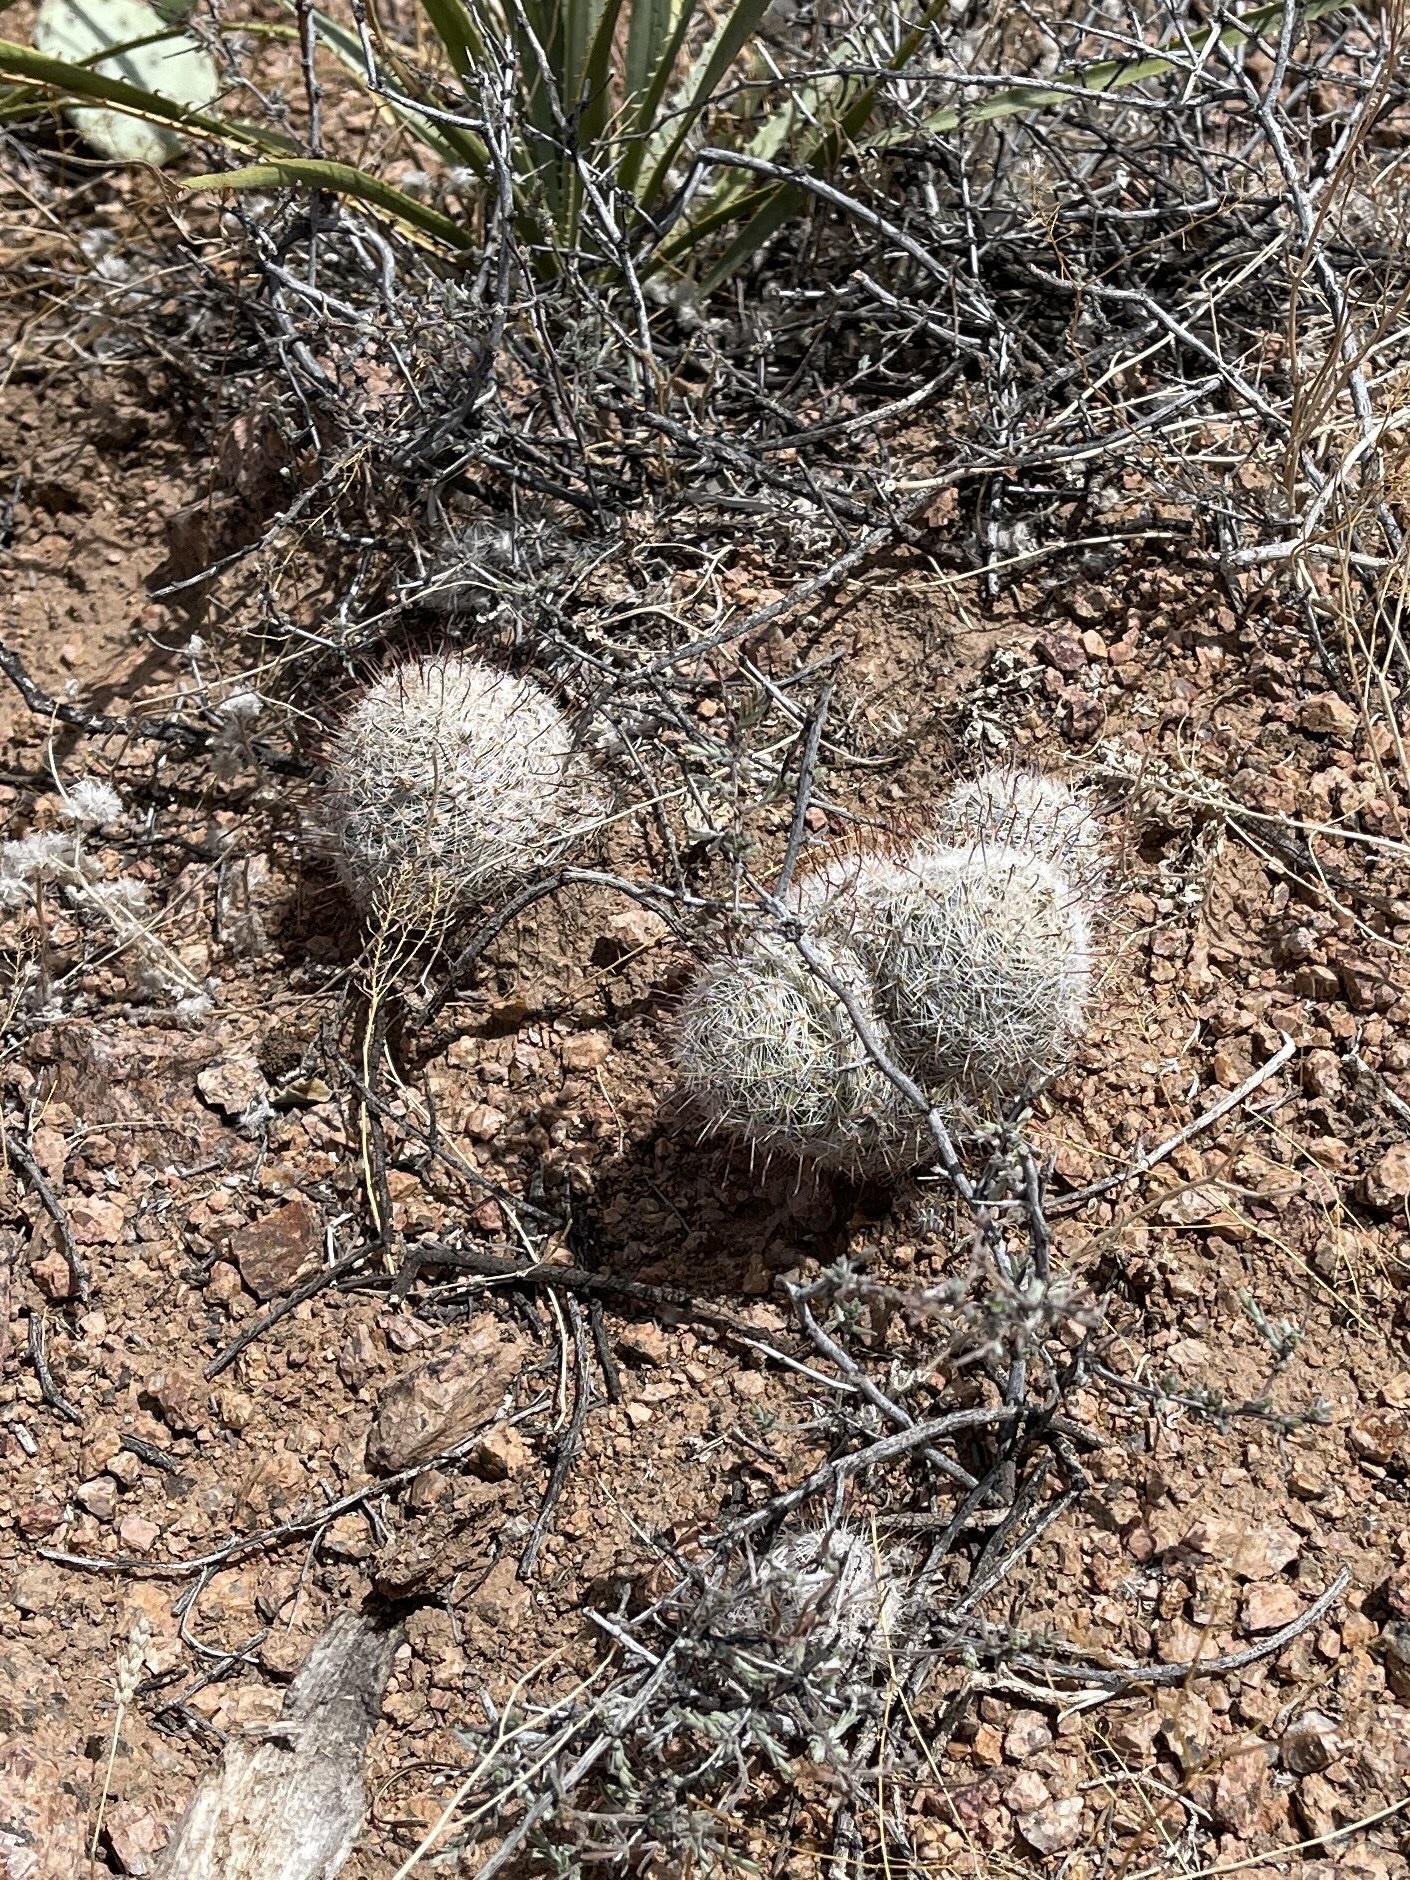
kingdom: Plantae
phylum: Tracheophyta
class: Magnoliopsida
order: Caryophyllales
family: Cactaceae
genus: Cochemiea
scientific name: Cochemiea grahamii
